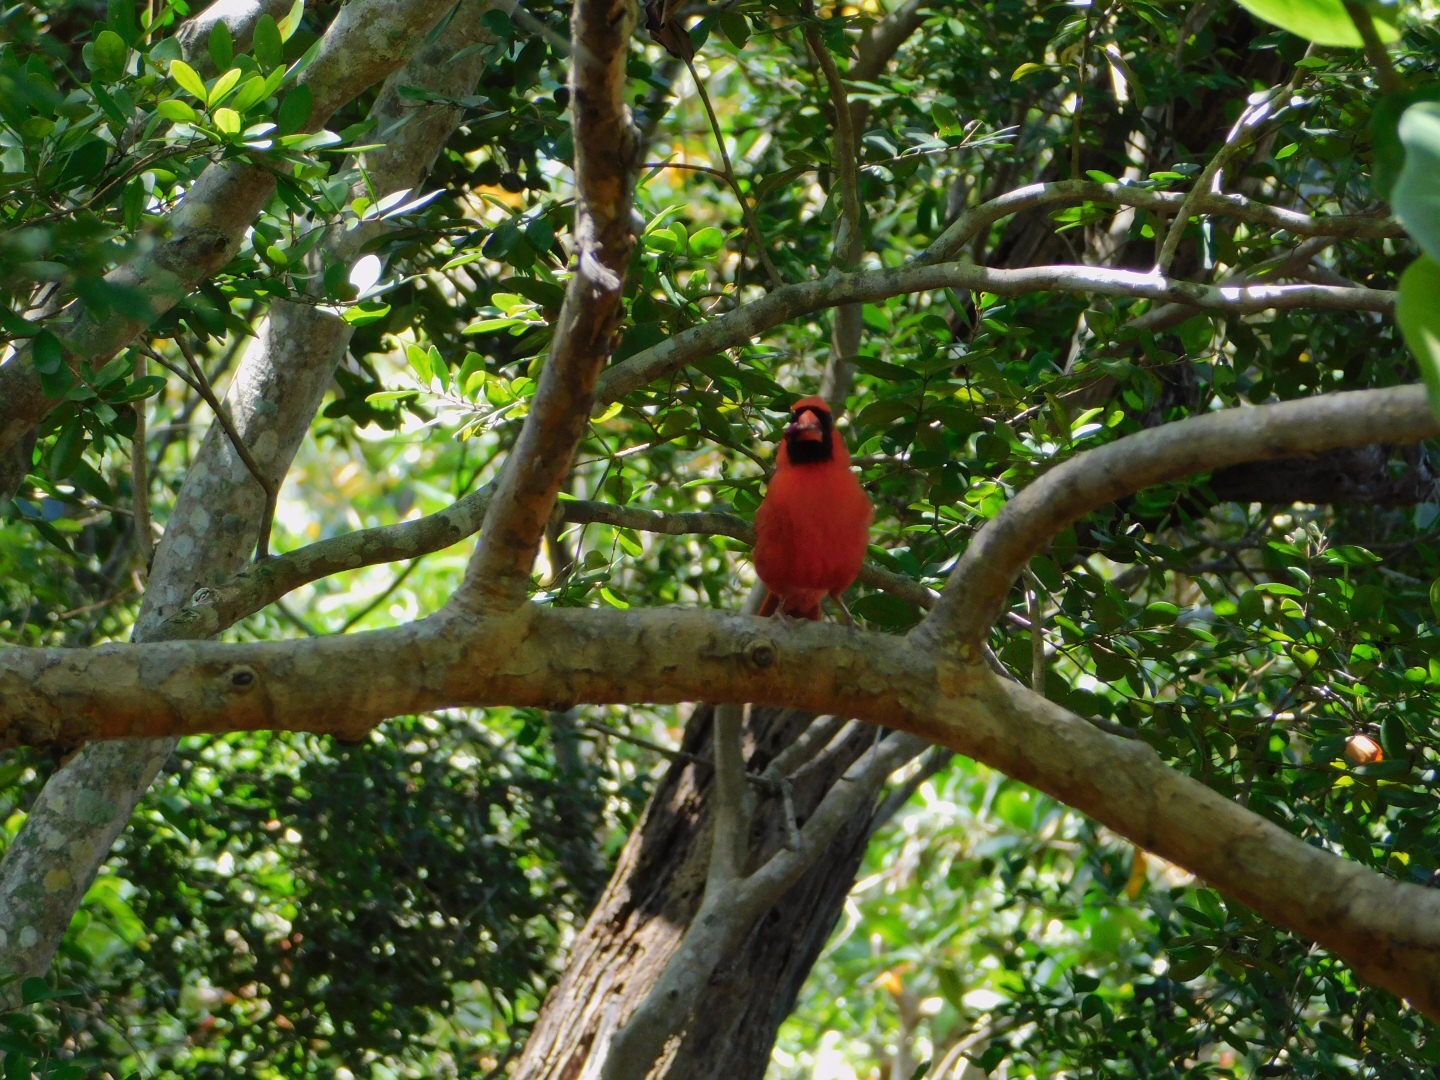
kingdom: Animalia
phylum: Chordata
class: Aves
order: Passeriformes
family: Cardinalidae
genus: Cardinalis
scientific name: Cardinalis cardinalis
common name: Northern cardinal
